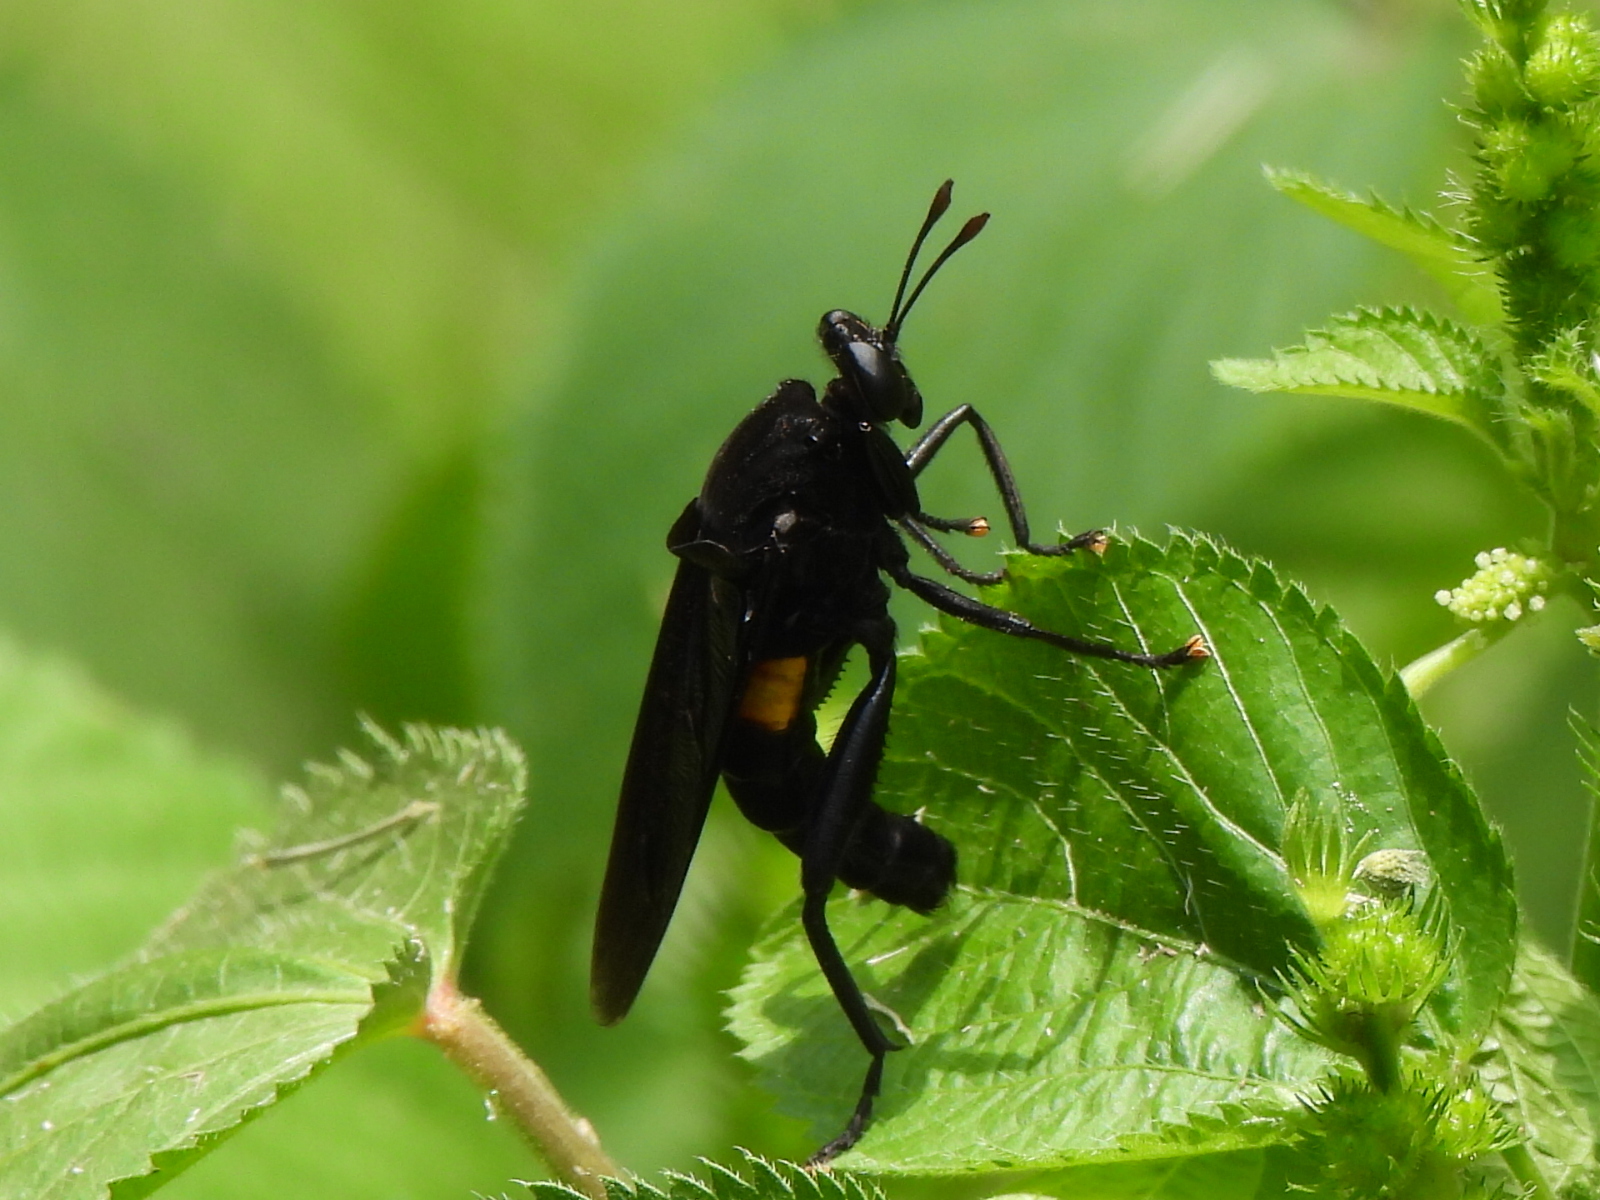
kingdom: Animalia
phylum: Arthropoda
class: Insecta
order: Diptera
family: Mydidae
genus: Mydas
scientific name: Mydas clavatus
